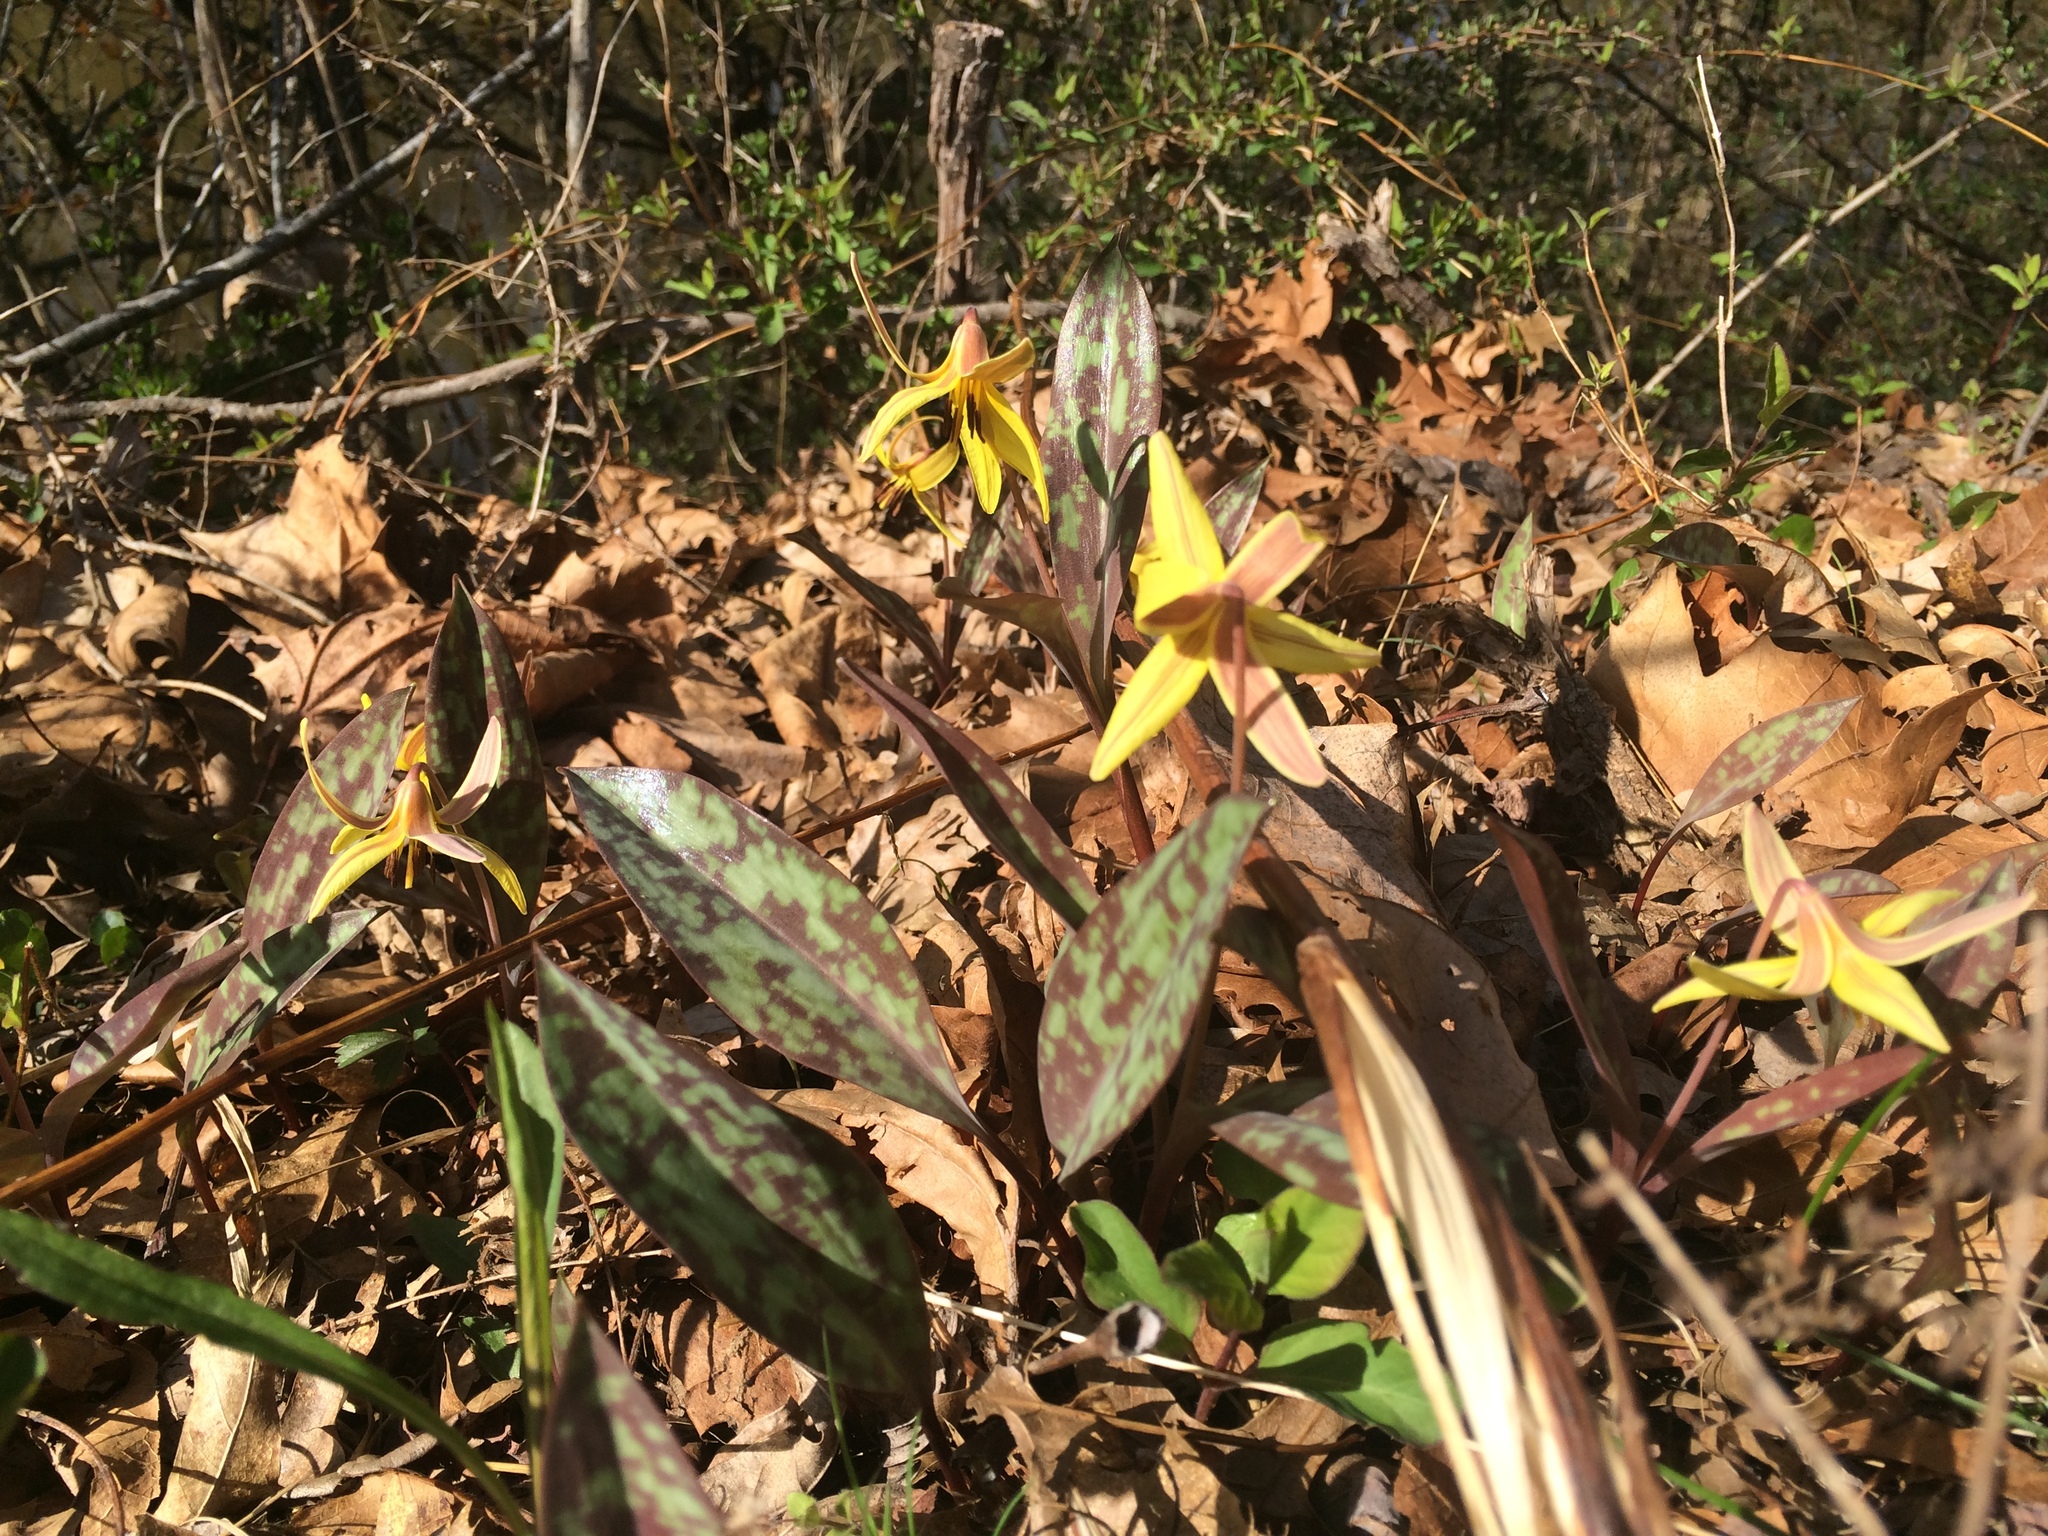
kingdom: Plantae
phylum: Tracheophyta
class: Liliopsida
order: Liliales
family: Liliaceae
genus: Erythronium
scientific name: Erythronium americanum
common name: Yellow adder's-tongue
